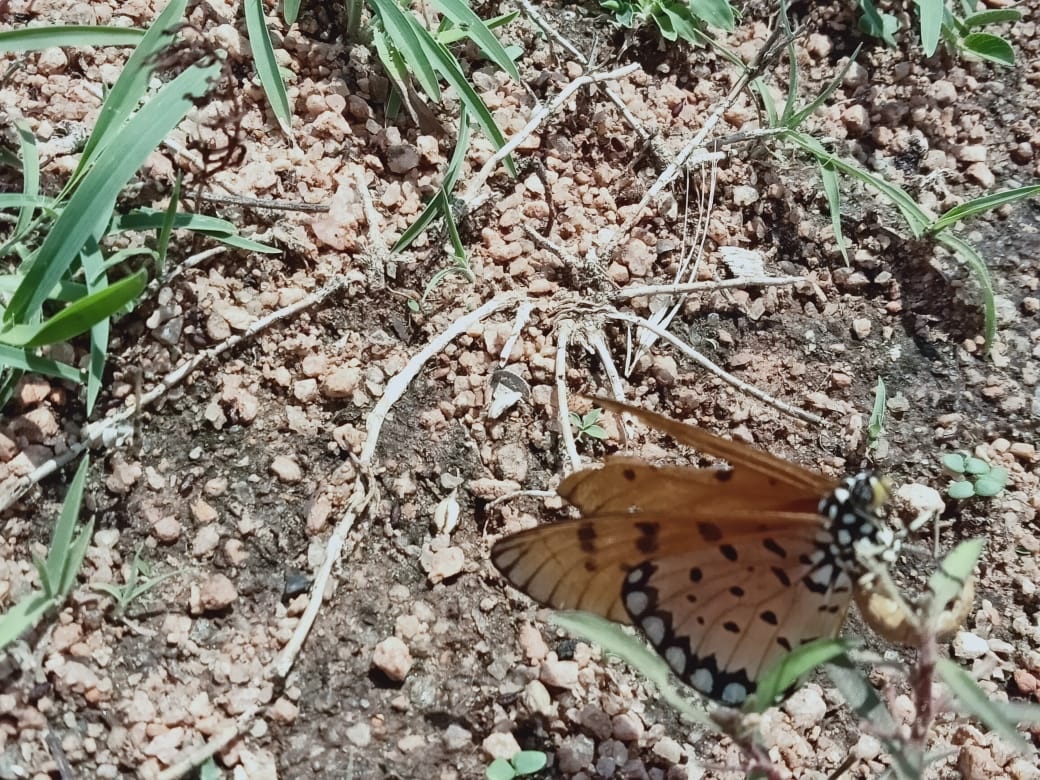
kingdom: Animalia
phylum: Arthropoda
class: Insecta
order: Lepidoptera
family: Nymphalidae
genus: Acraea
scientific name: Acraea terpsicore
